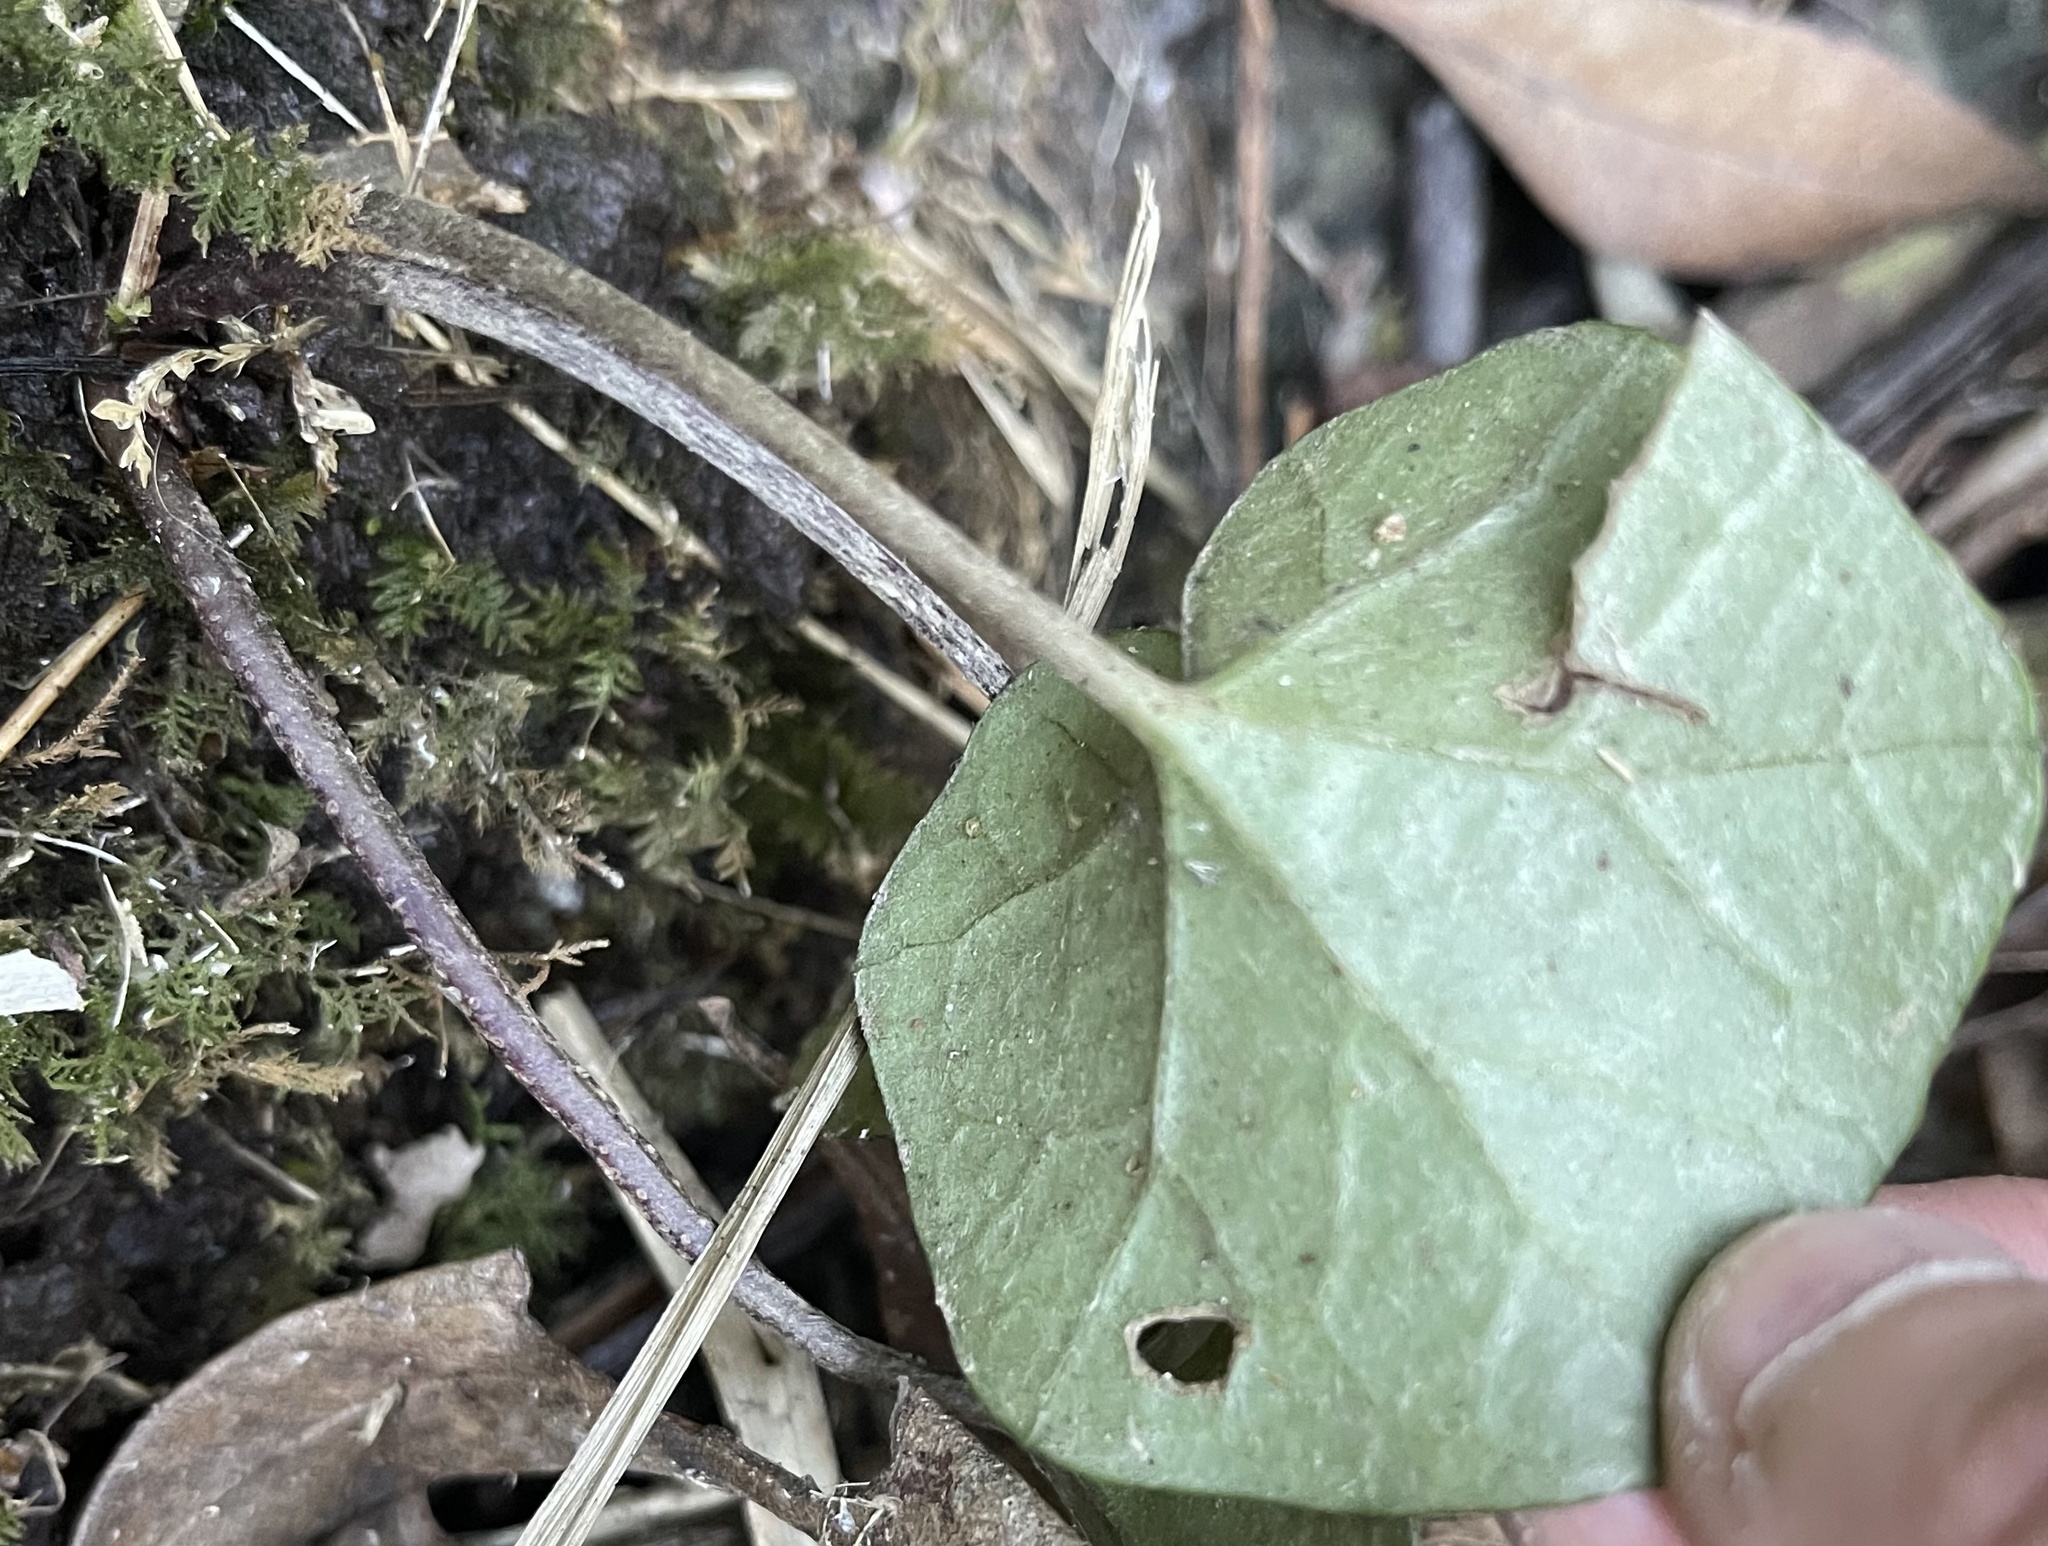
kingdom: Plantae
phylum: Tracheophyta
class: Magnoliopsida
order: Asterales
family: Asteraceae
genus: Farfugium
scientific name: Farfugium japonicum
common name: Leopardplant
